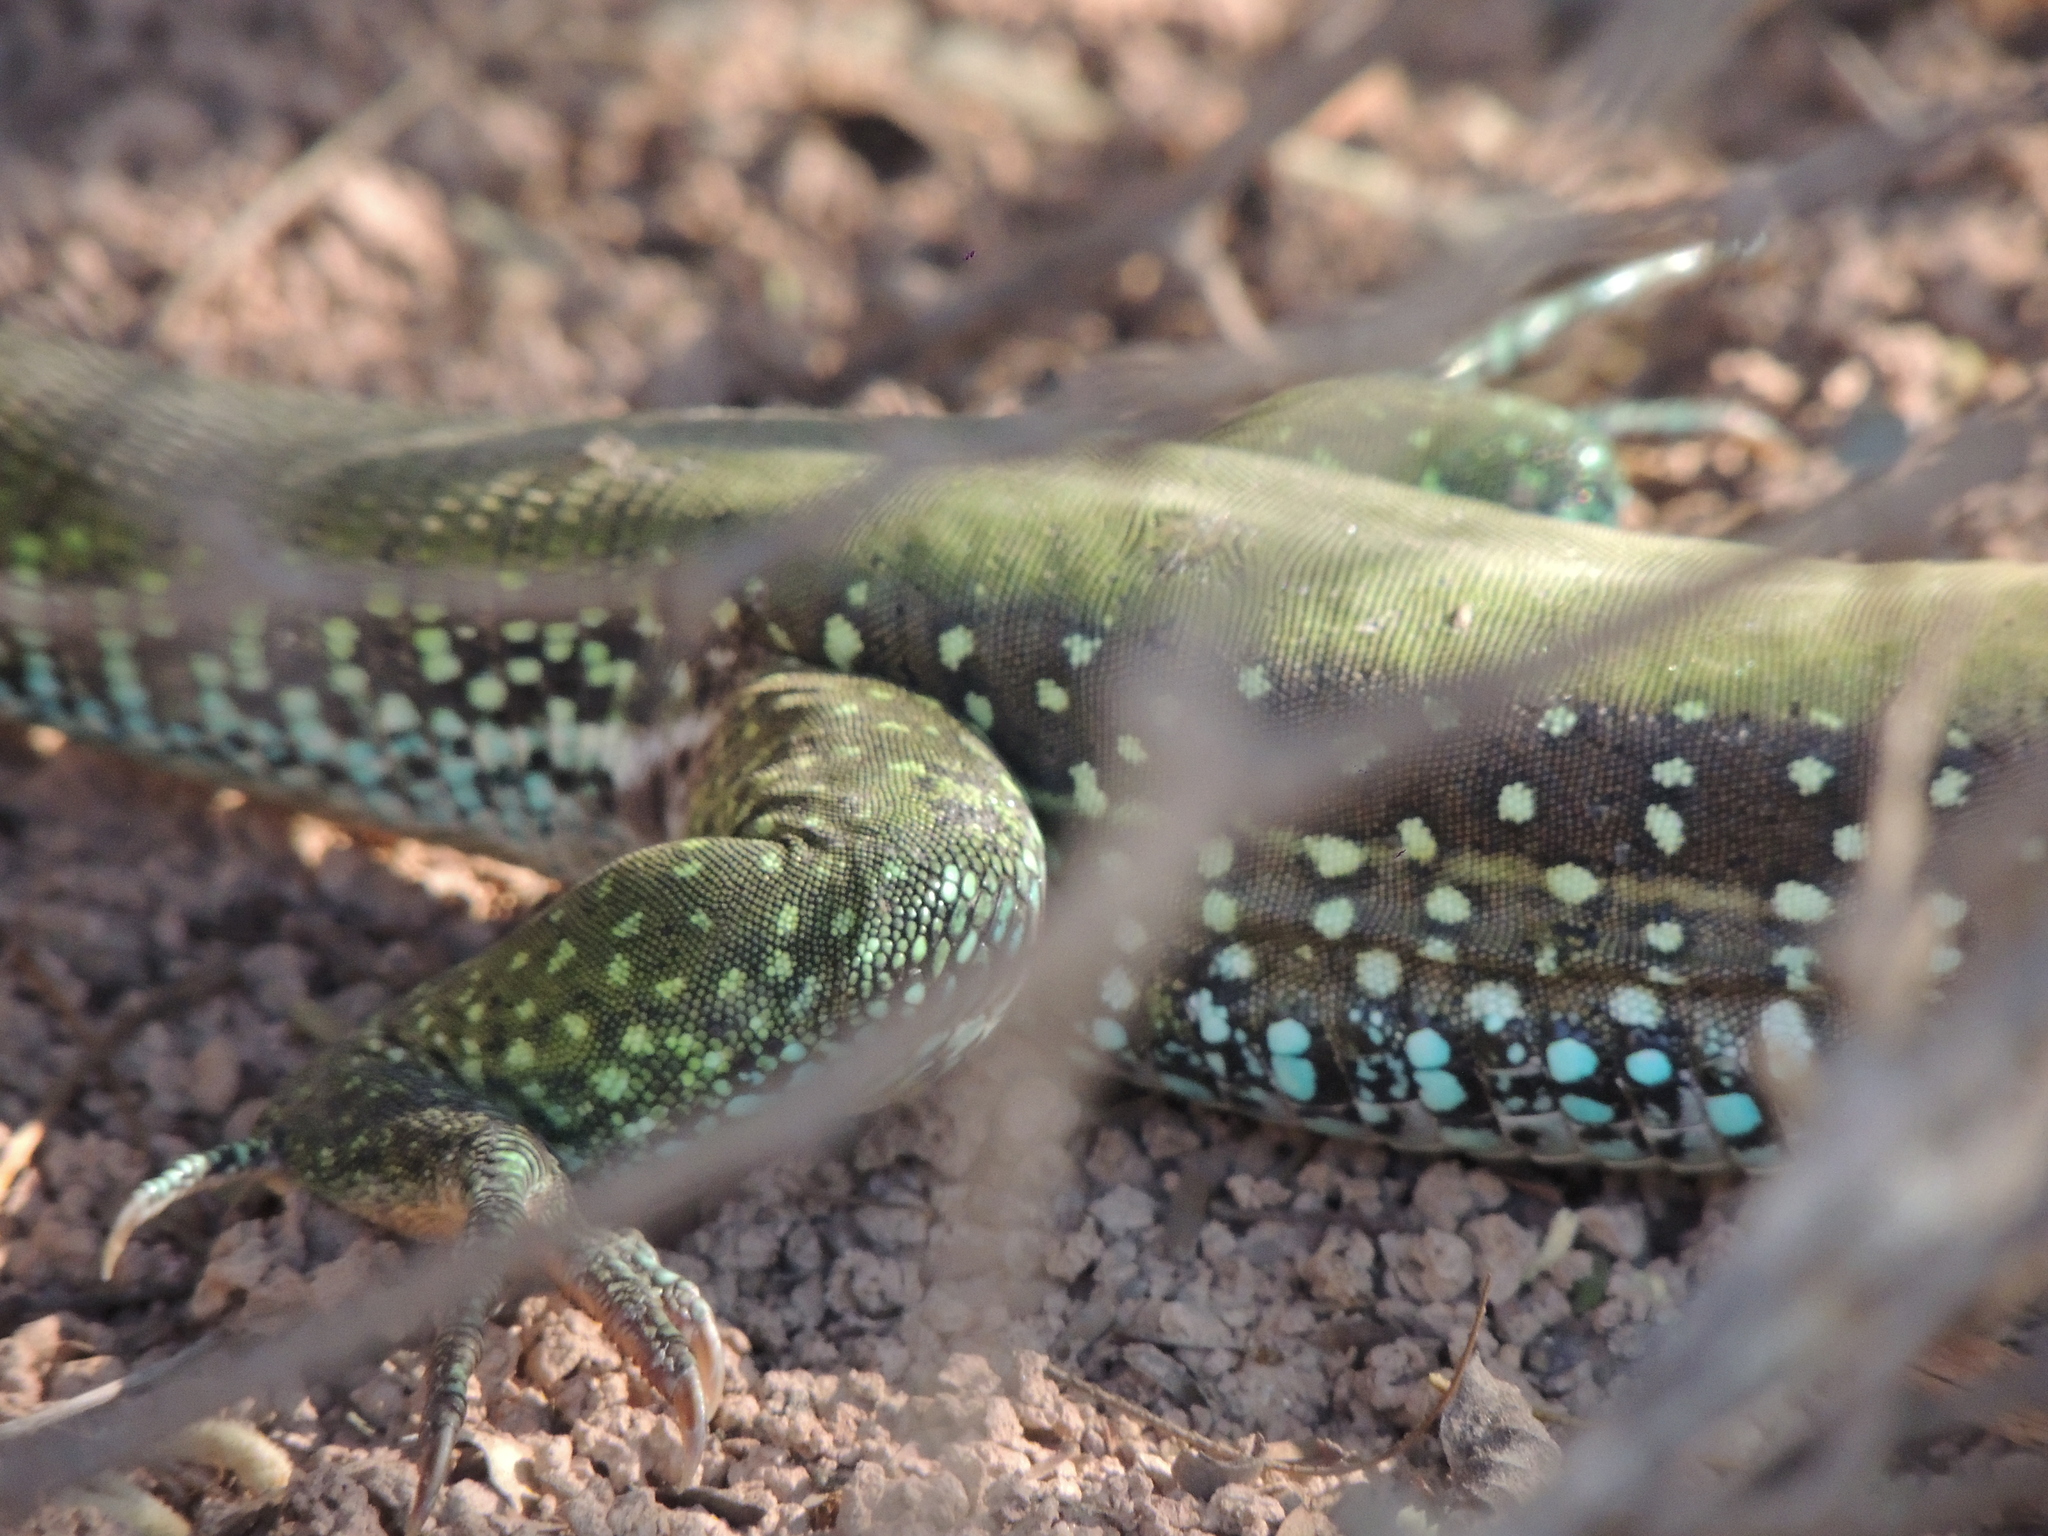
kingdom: Animalia
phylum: Chordata
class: Squamata
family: Teiidae
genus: Ameiva
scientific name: Ameiva ameiva
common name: Giant ameiva
